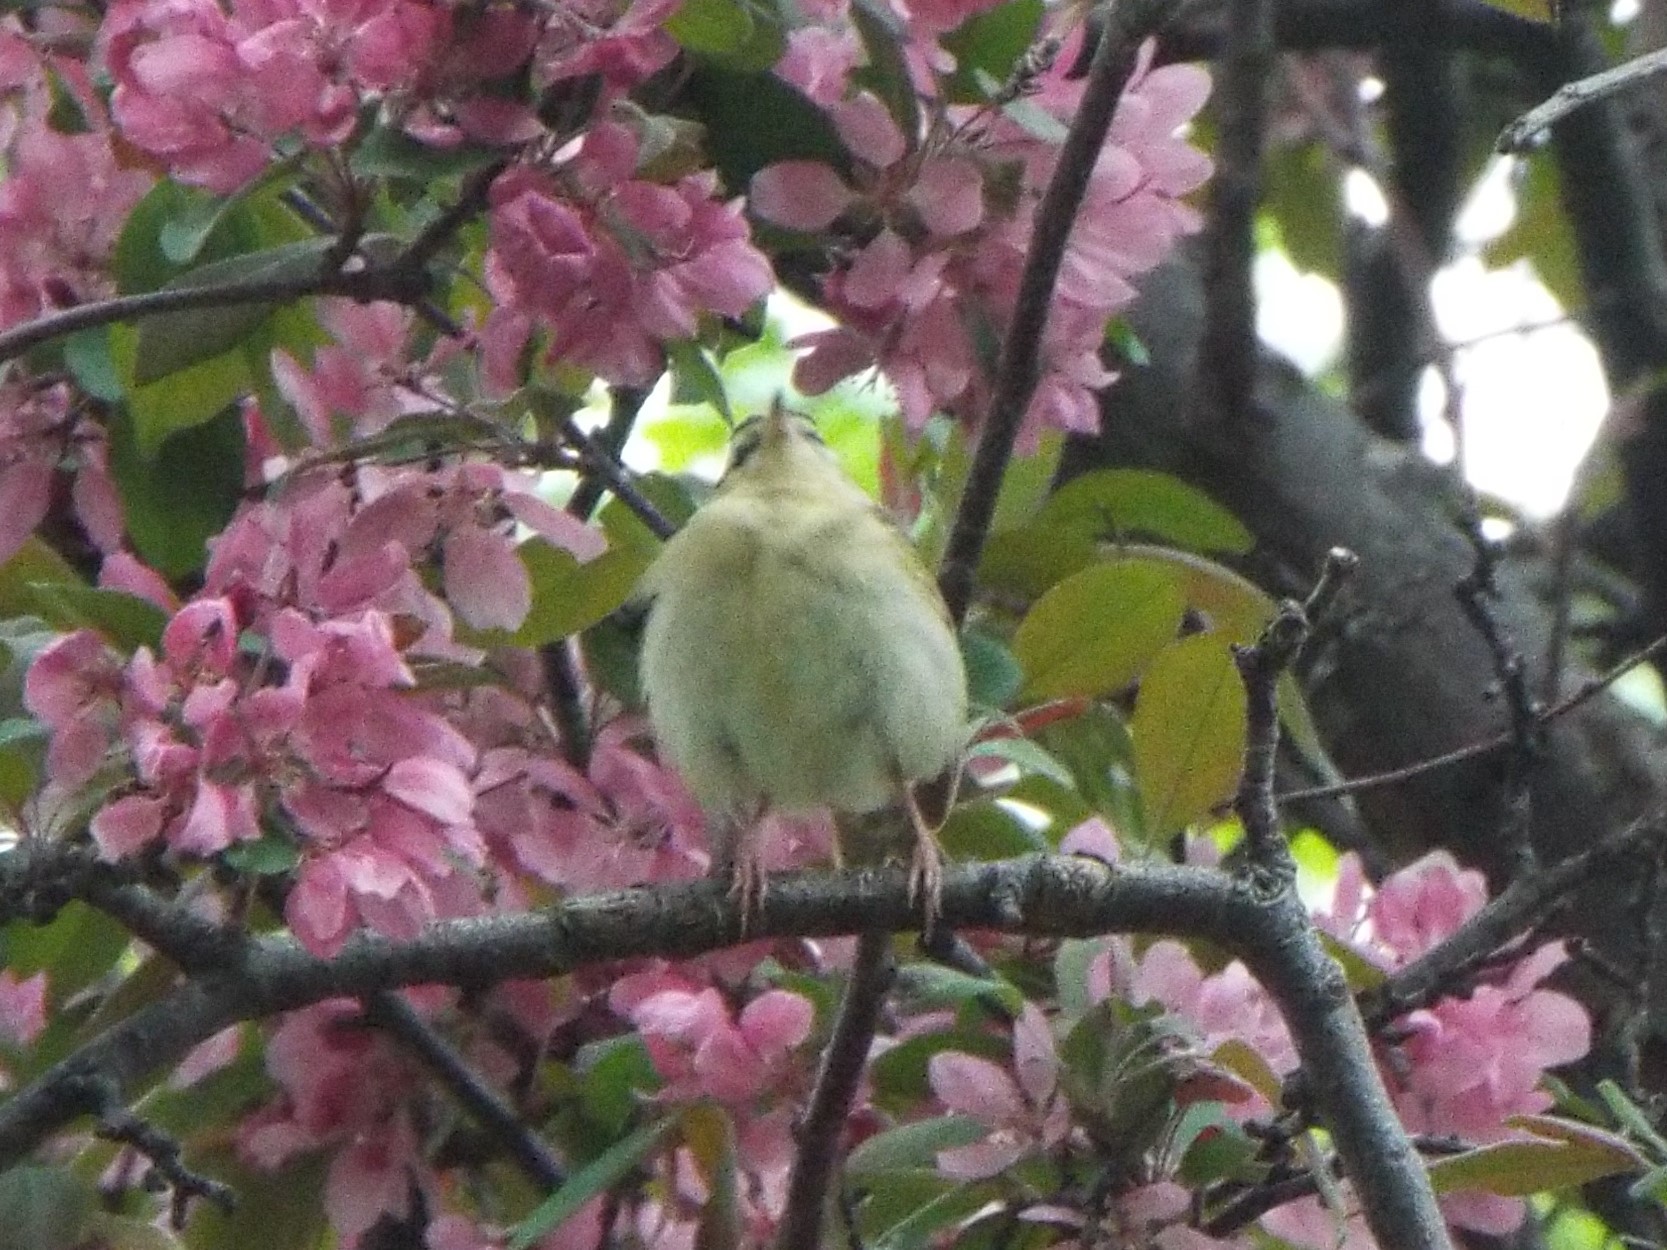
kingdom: Animalia
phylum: Chordata
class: Aves
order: Passeriformes
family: Parulidae
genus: Helmitheros
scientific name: Helmitheros vermivorum
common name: Worm-eating warbler
